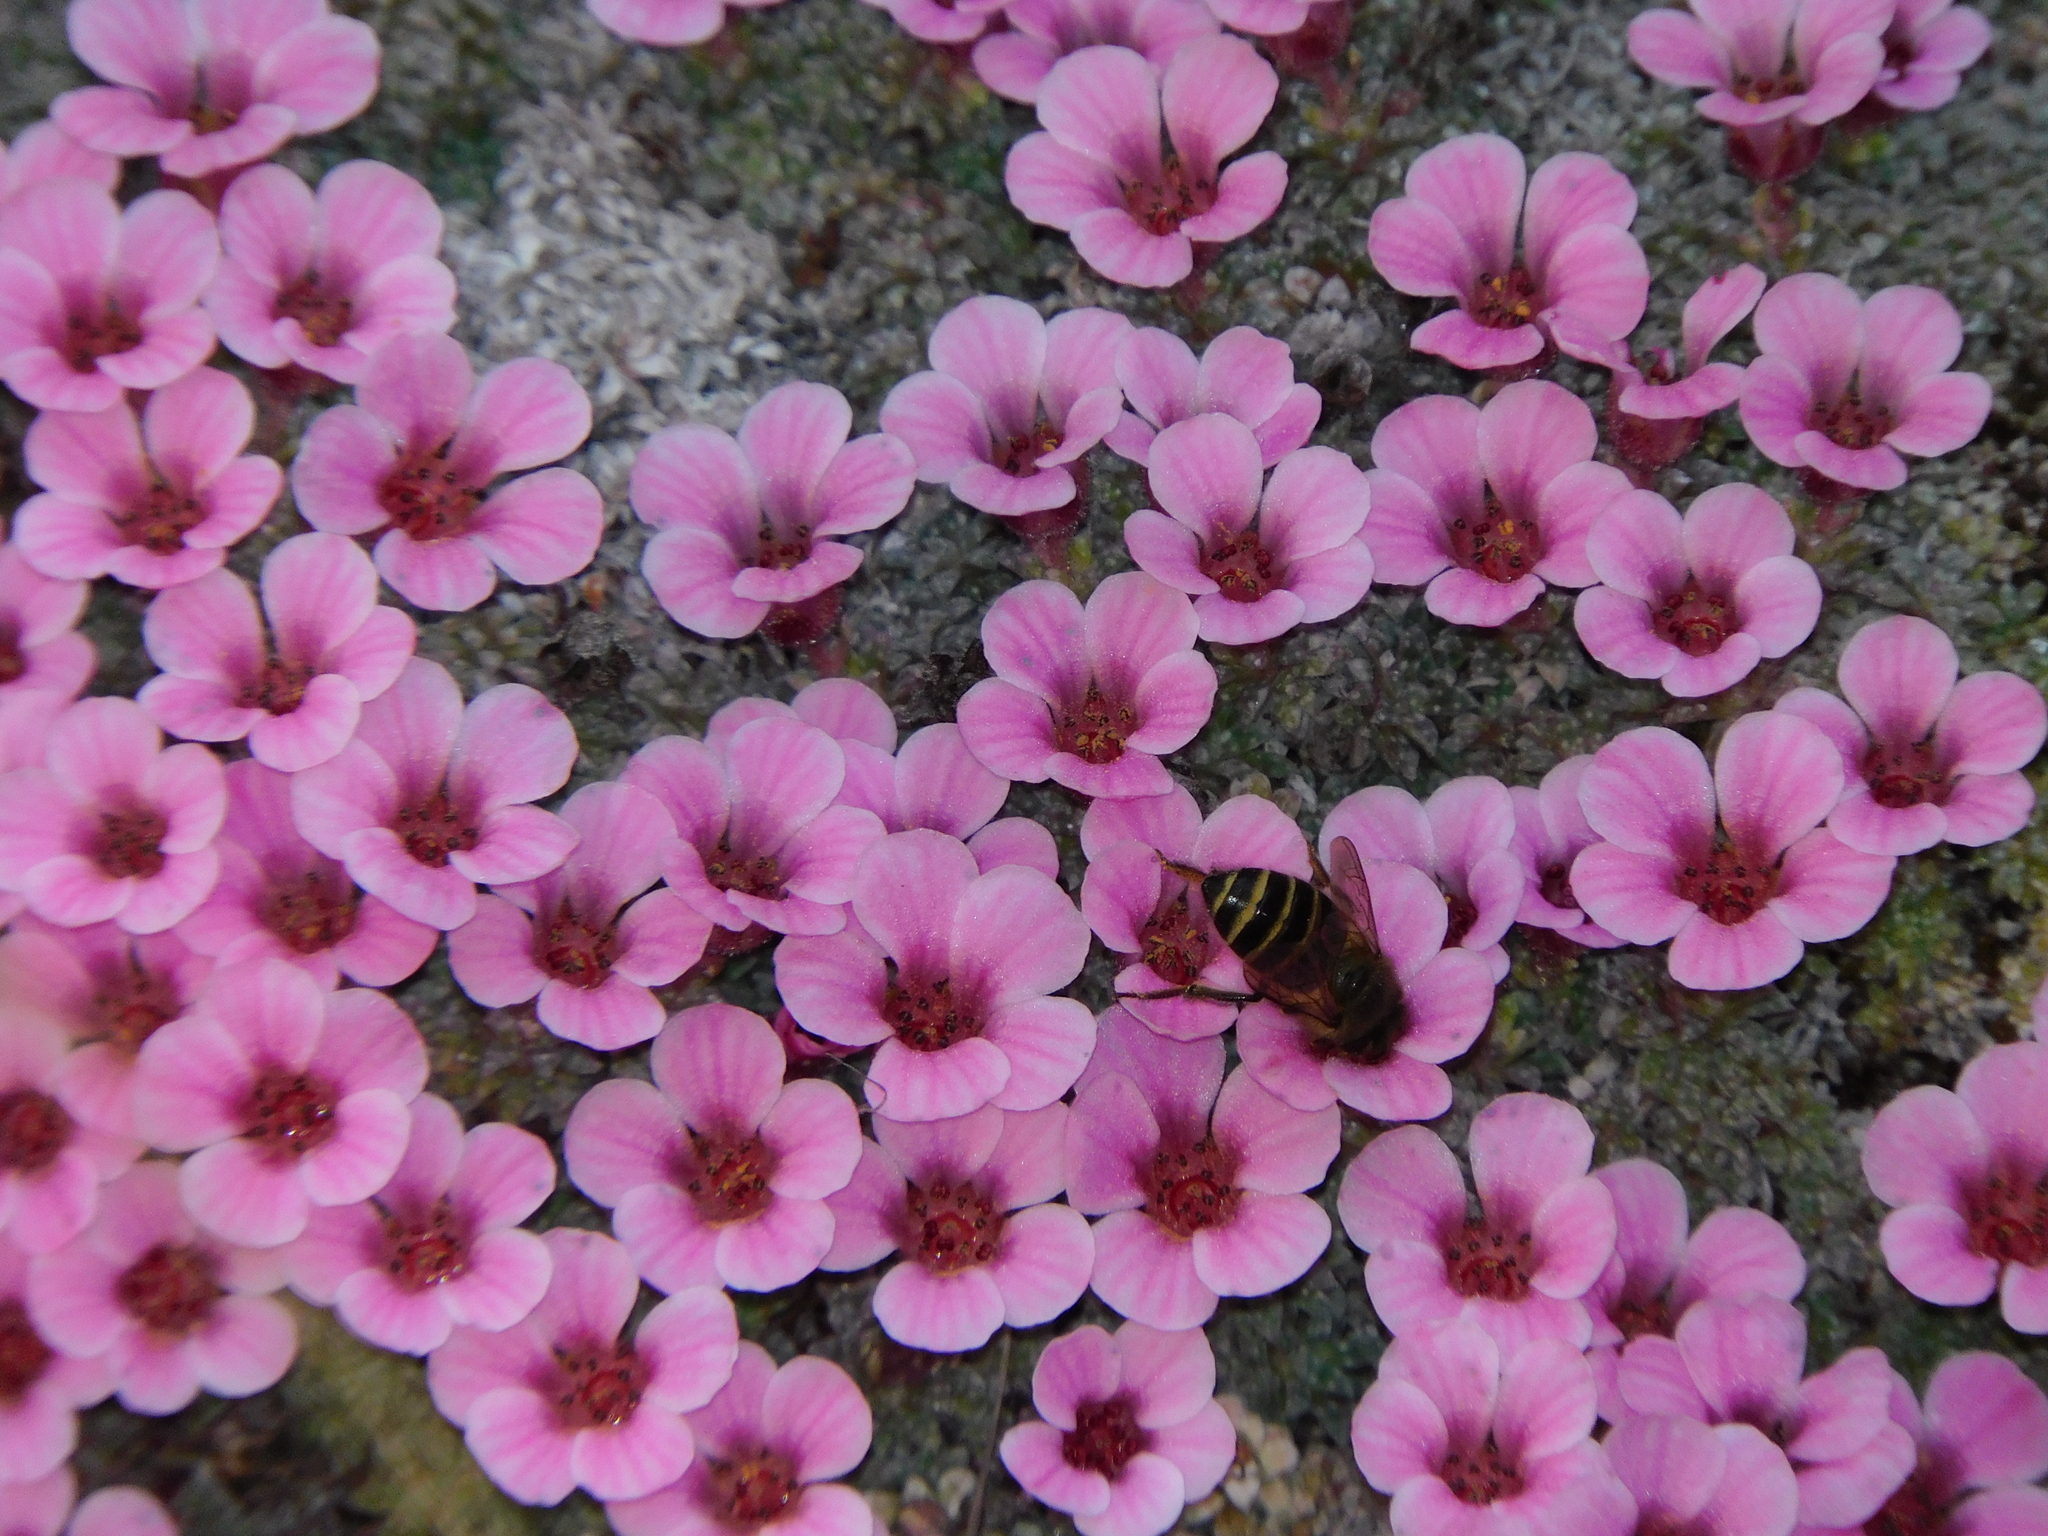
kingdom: Animalia
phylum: Arthropoda
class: Insecta
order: Hymenoptera
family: Apidae
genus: Apis
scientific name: Apis cerana
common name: Honey bee
